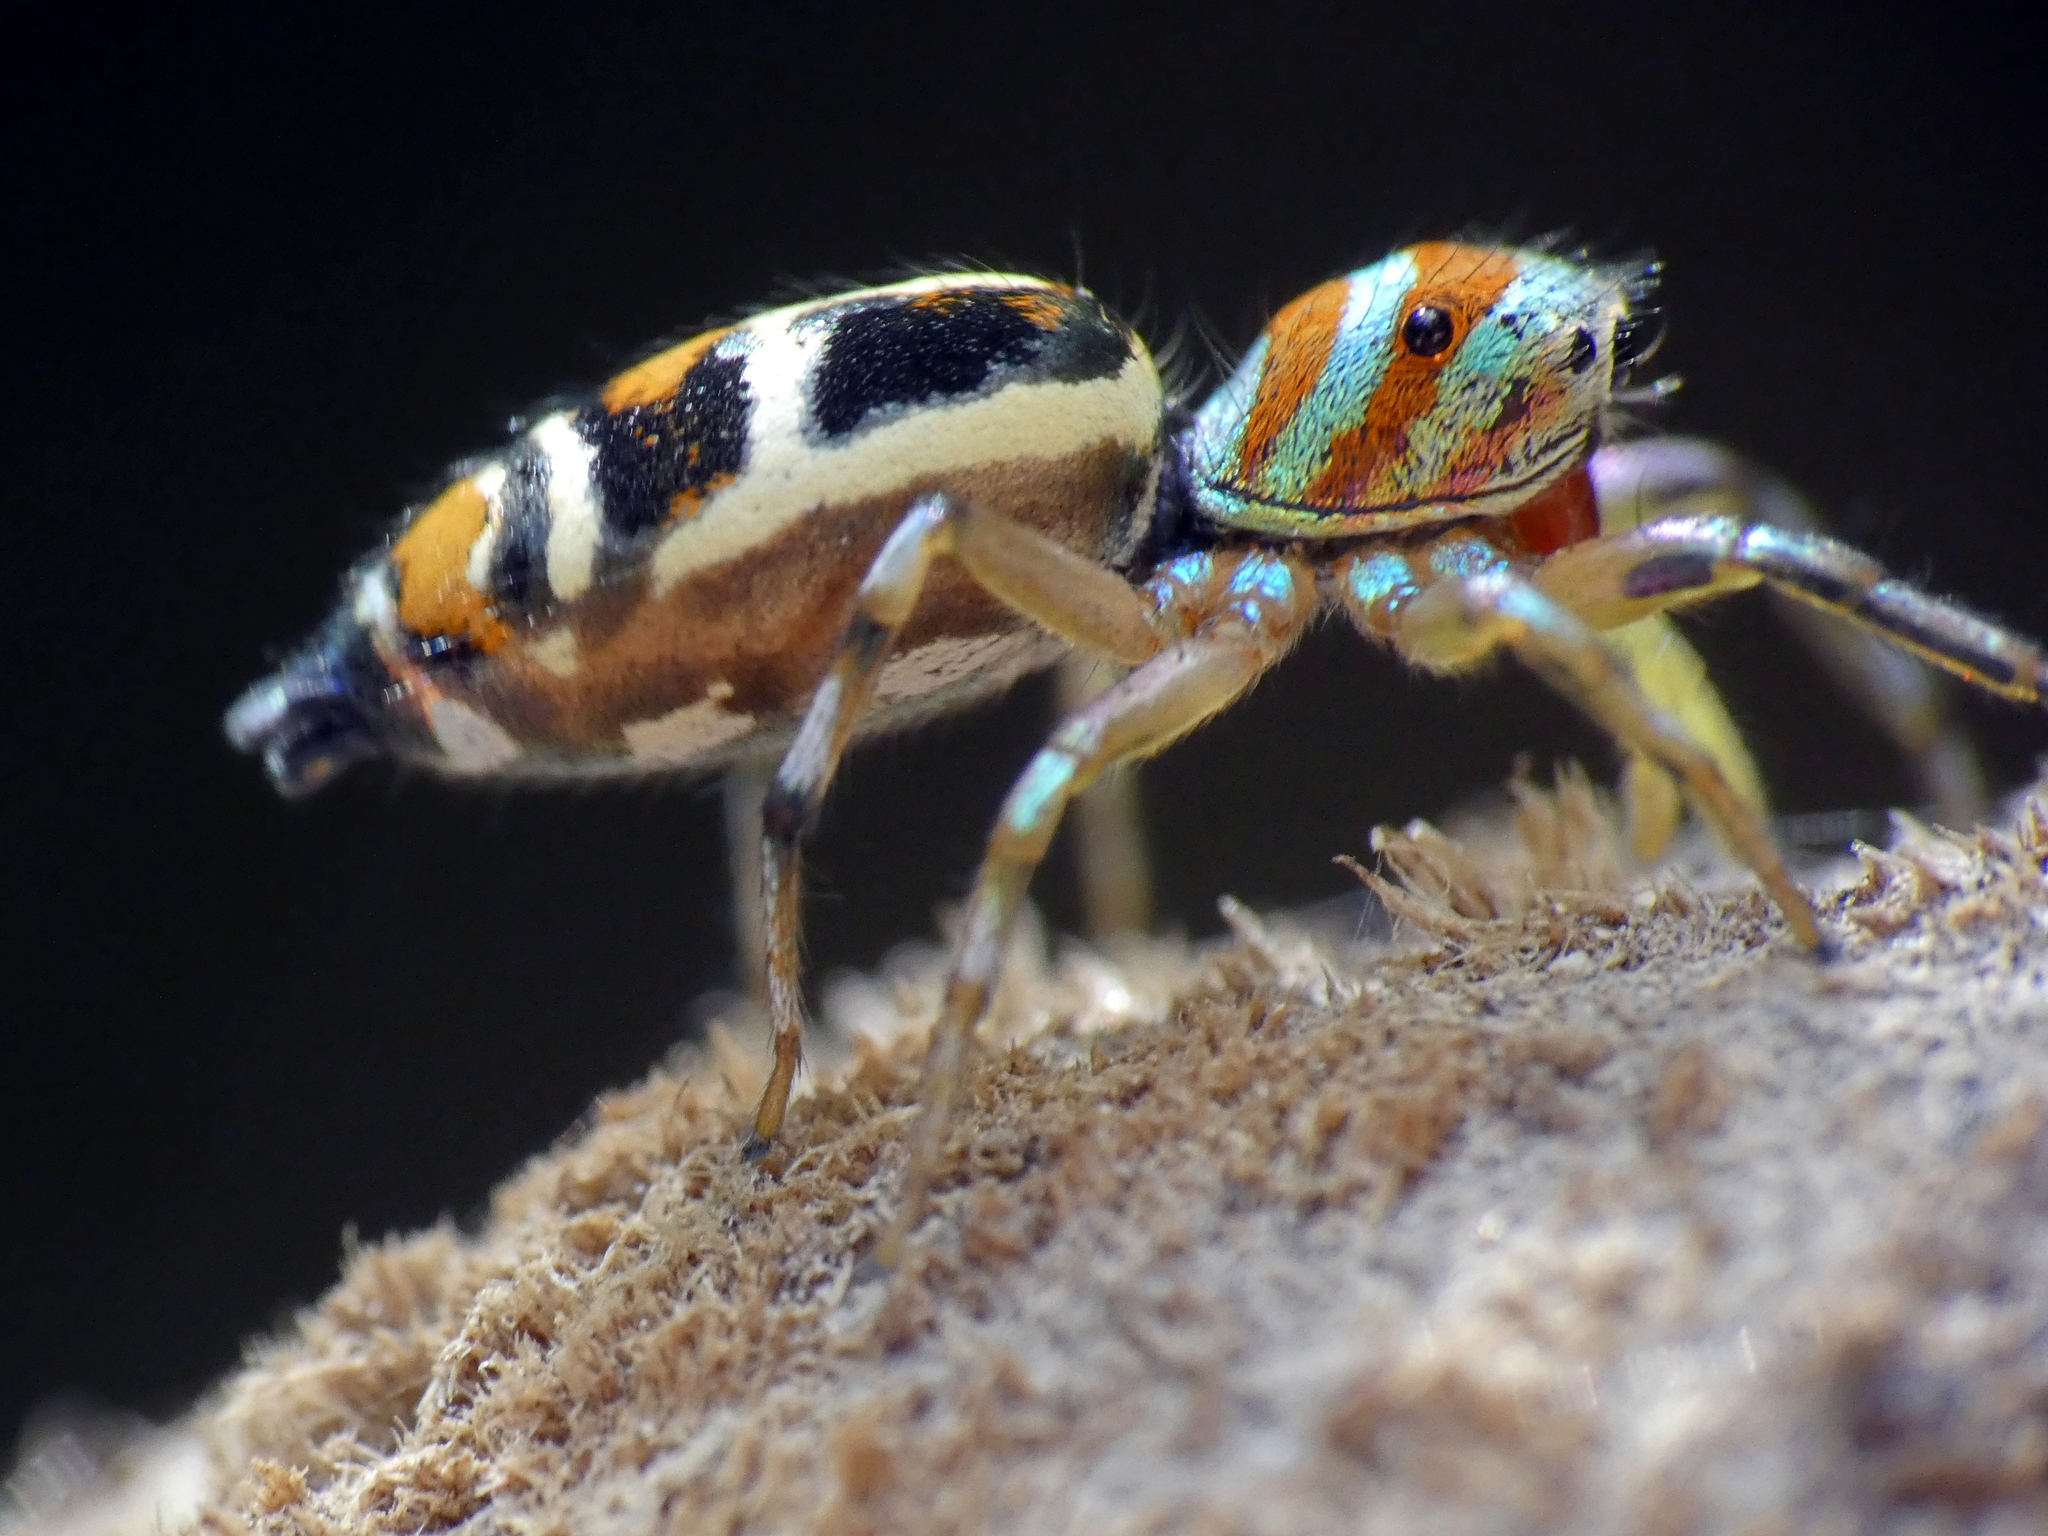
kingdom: Animalia
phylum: Arthropoda
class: Arachnida
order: Araneae
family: Salticidae
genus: Cosmophasis
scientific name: Cosmophasis micarioides
